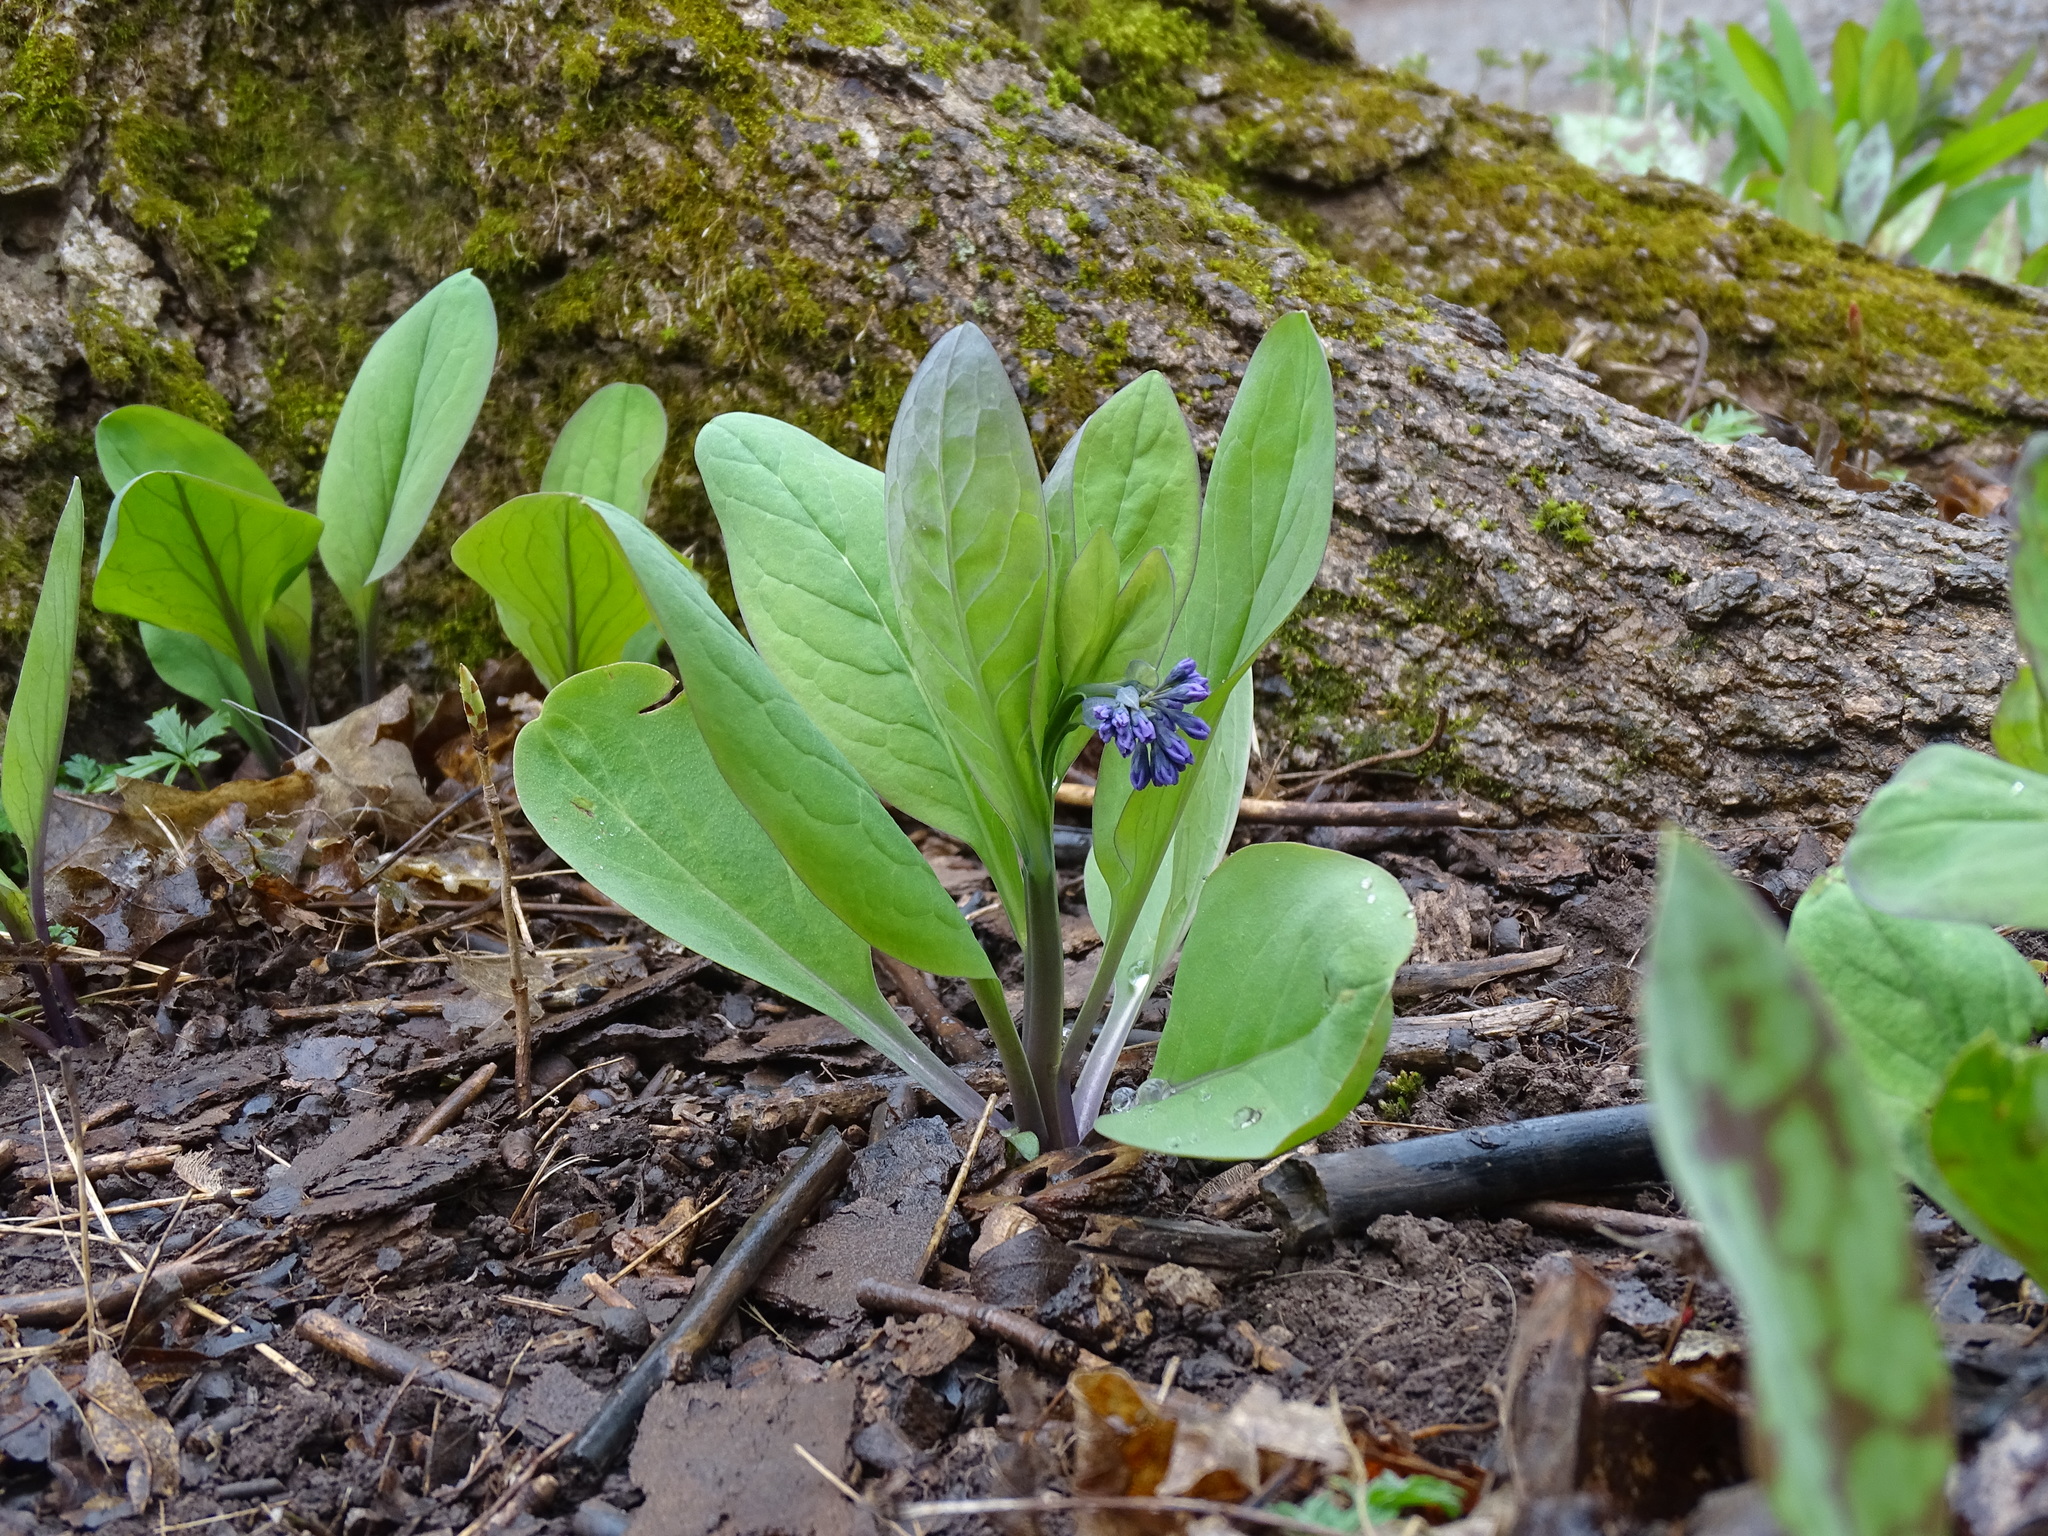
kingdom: Plantae
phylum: Tracheophyta
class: Magnoliopsida
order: Boraginales
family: Boraginaceae
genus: Mertensia
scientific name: Mertensia virginica
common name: Virginia bluebells
